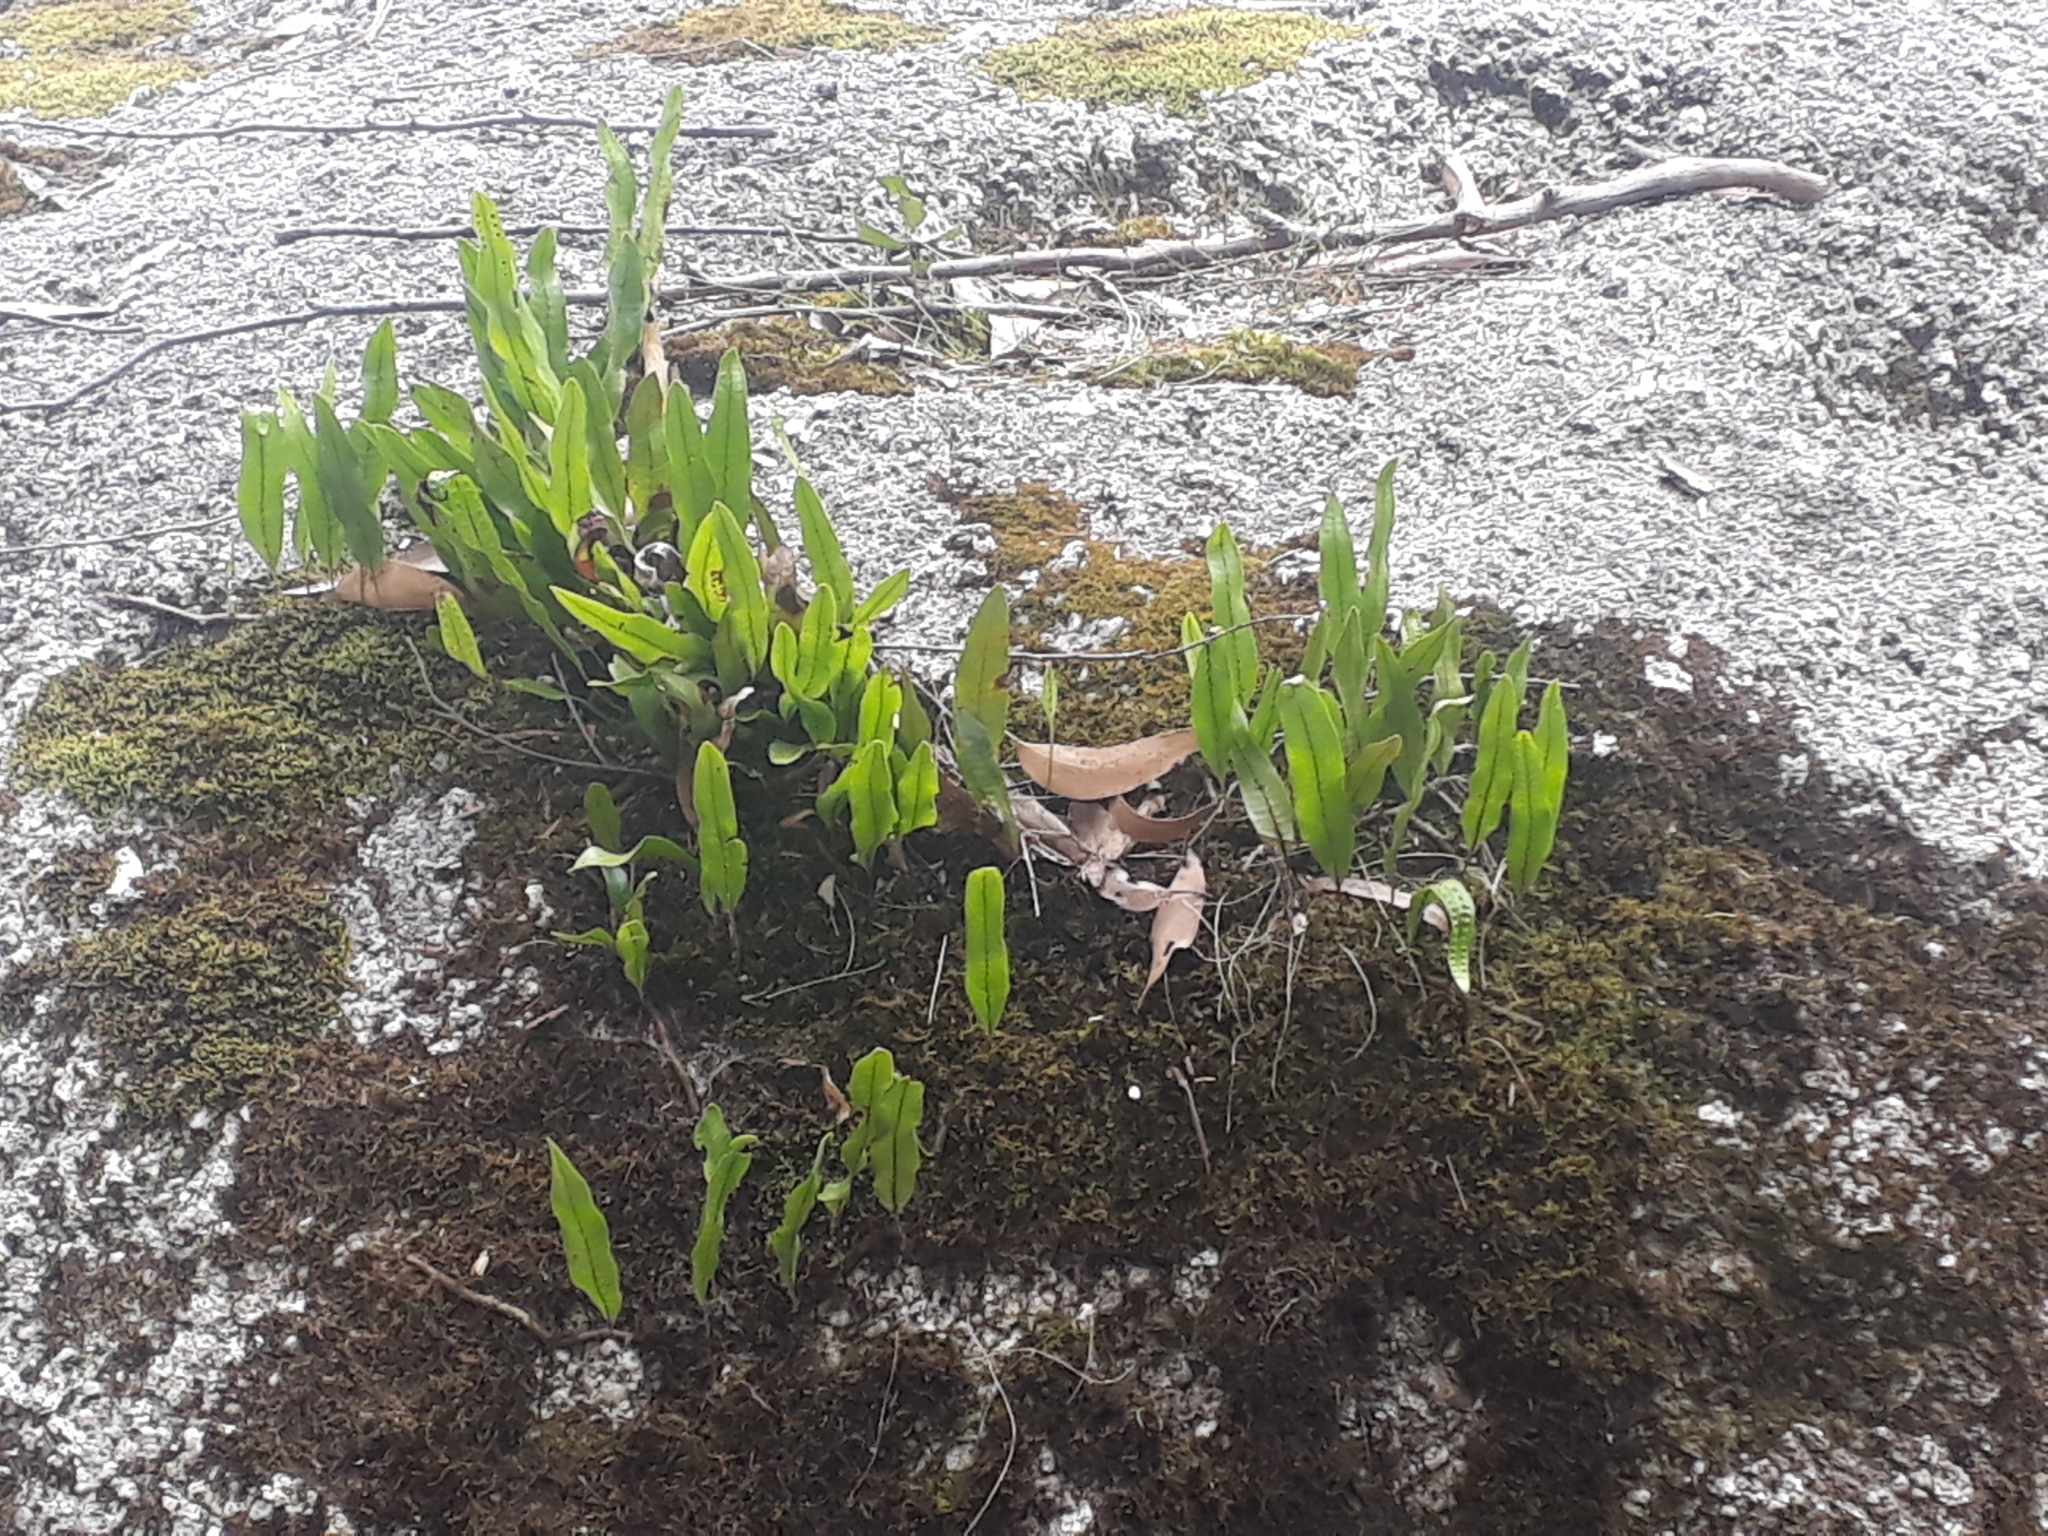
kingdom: Plantae
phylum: Tracheophyta
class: Polypodiopsida
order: Polypodiales
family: Polypodiaceae
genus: Lecanopteris
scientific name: Lecanopteris pustulata
